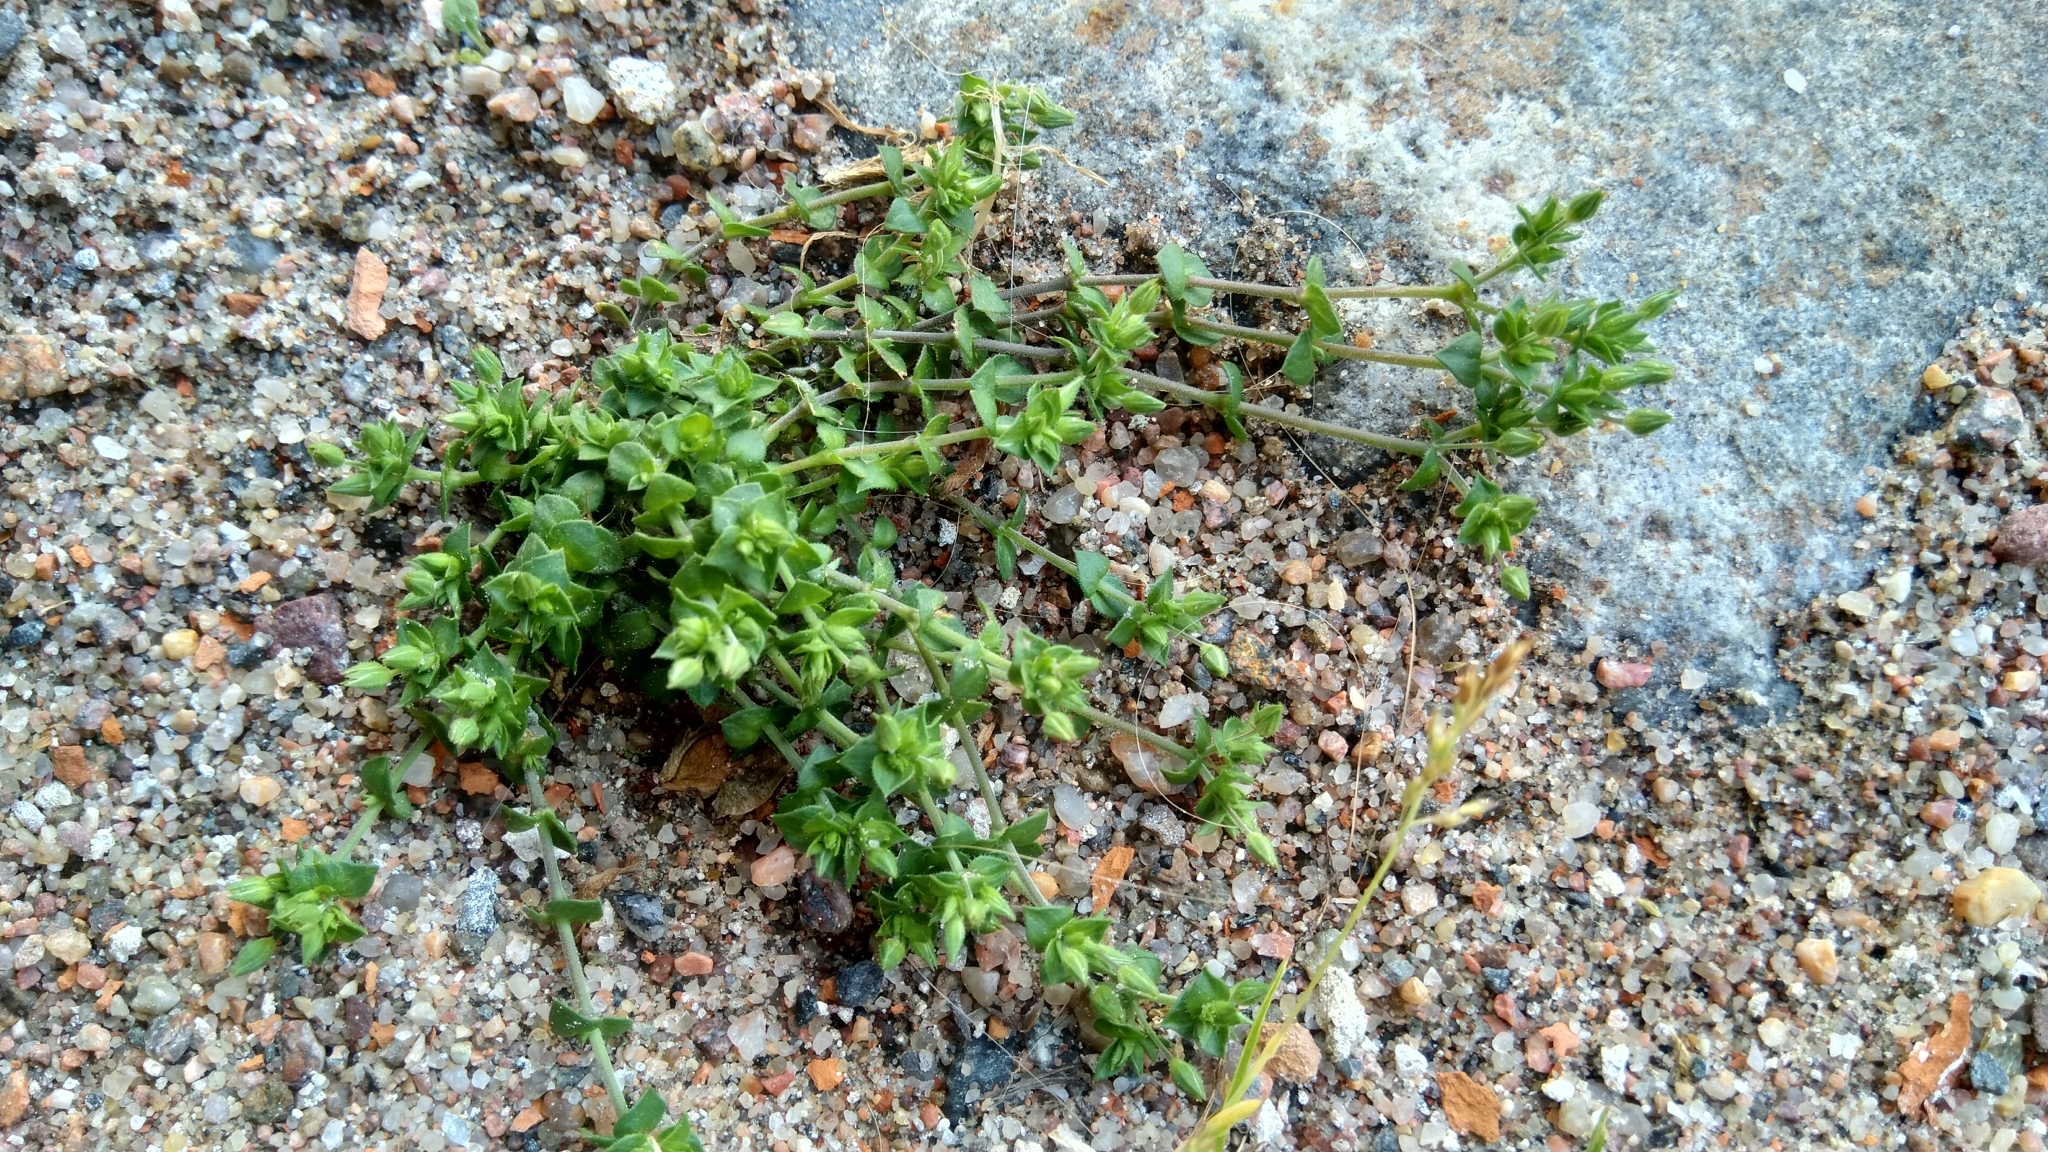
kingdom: Plantae
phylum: Tracheophyta
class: Magnoliopsida
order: Caryophyllales
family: Caryophyllaceae
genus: Arenaria
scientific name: Arenaria serpyllifolia
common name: Thyme-leaved sandwort
